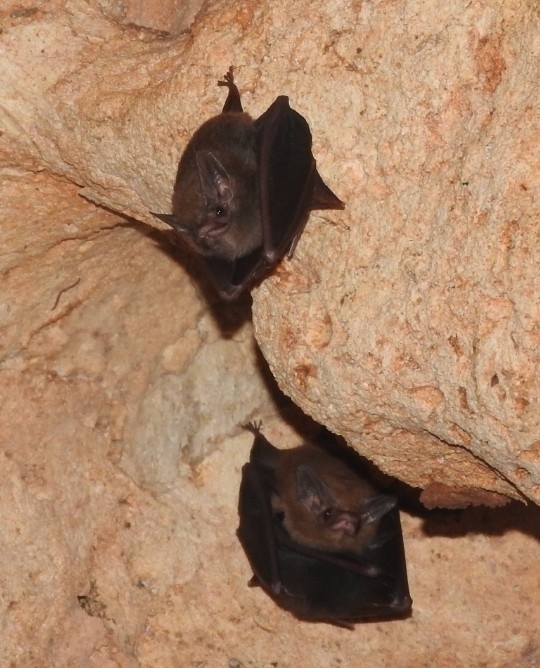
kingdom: Animalia
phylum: Chordata
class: Mammalia
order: Chiroptera
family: Emballonuridae
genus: Peropteryx
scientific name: Peropteryx macrotis
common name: Lesser dog-like bat
